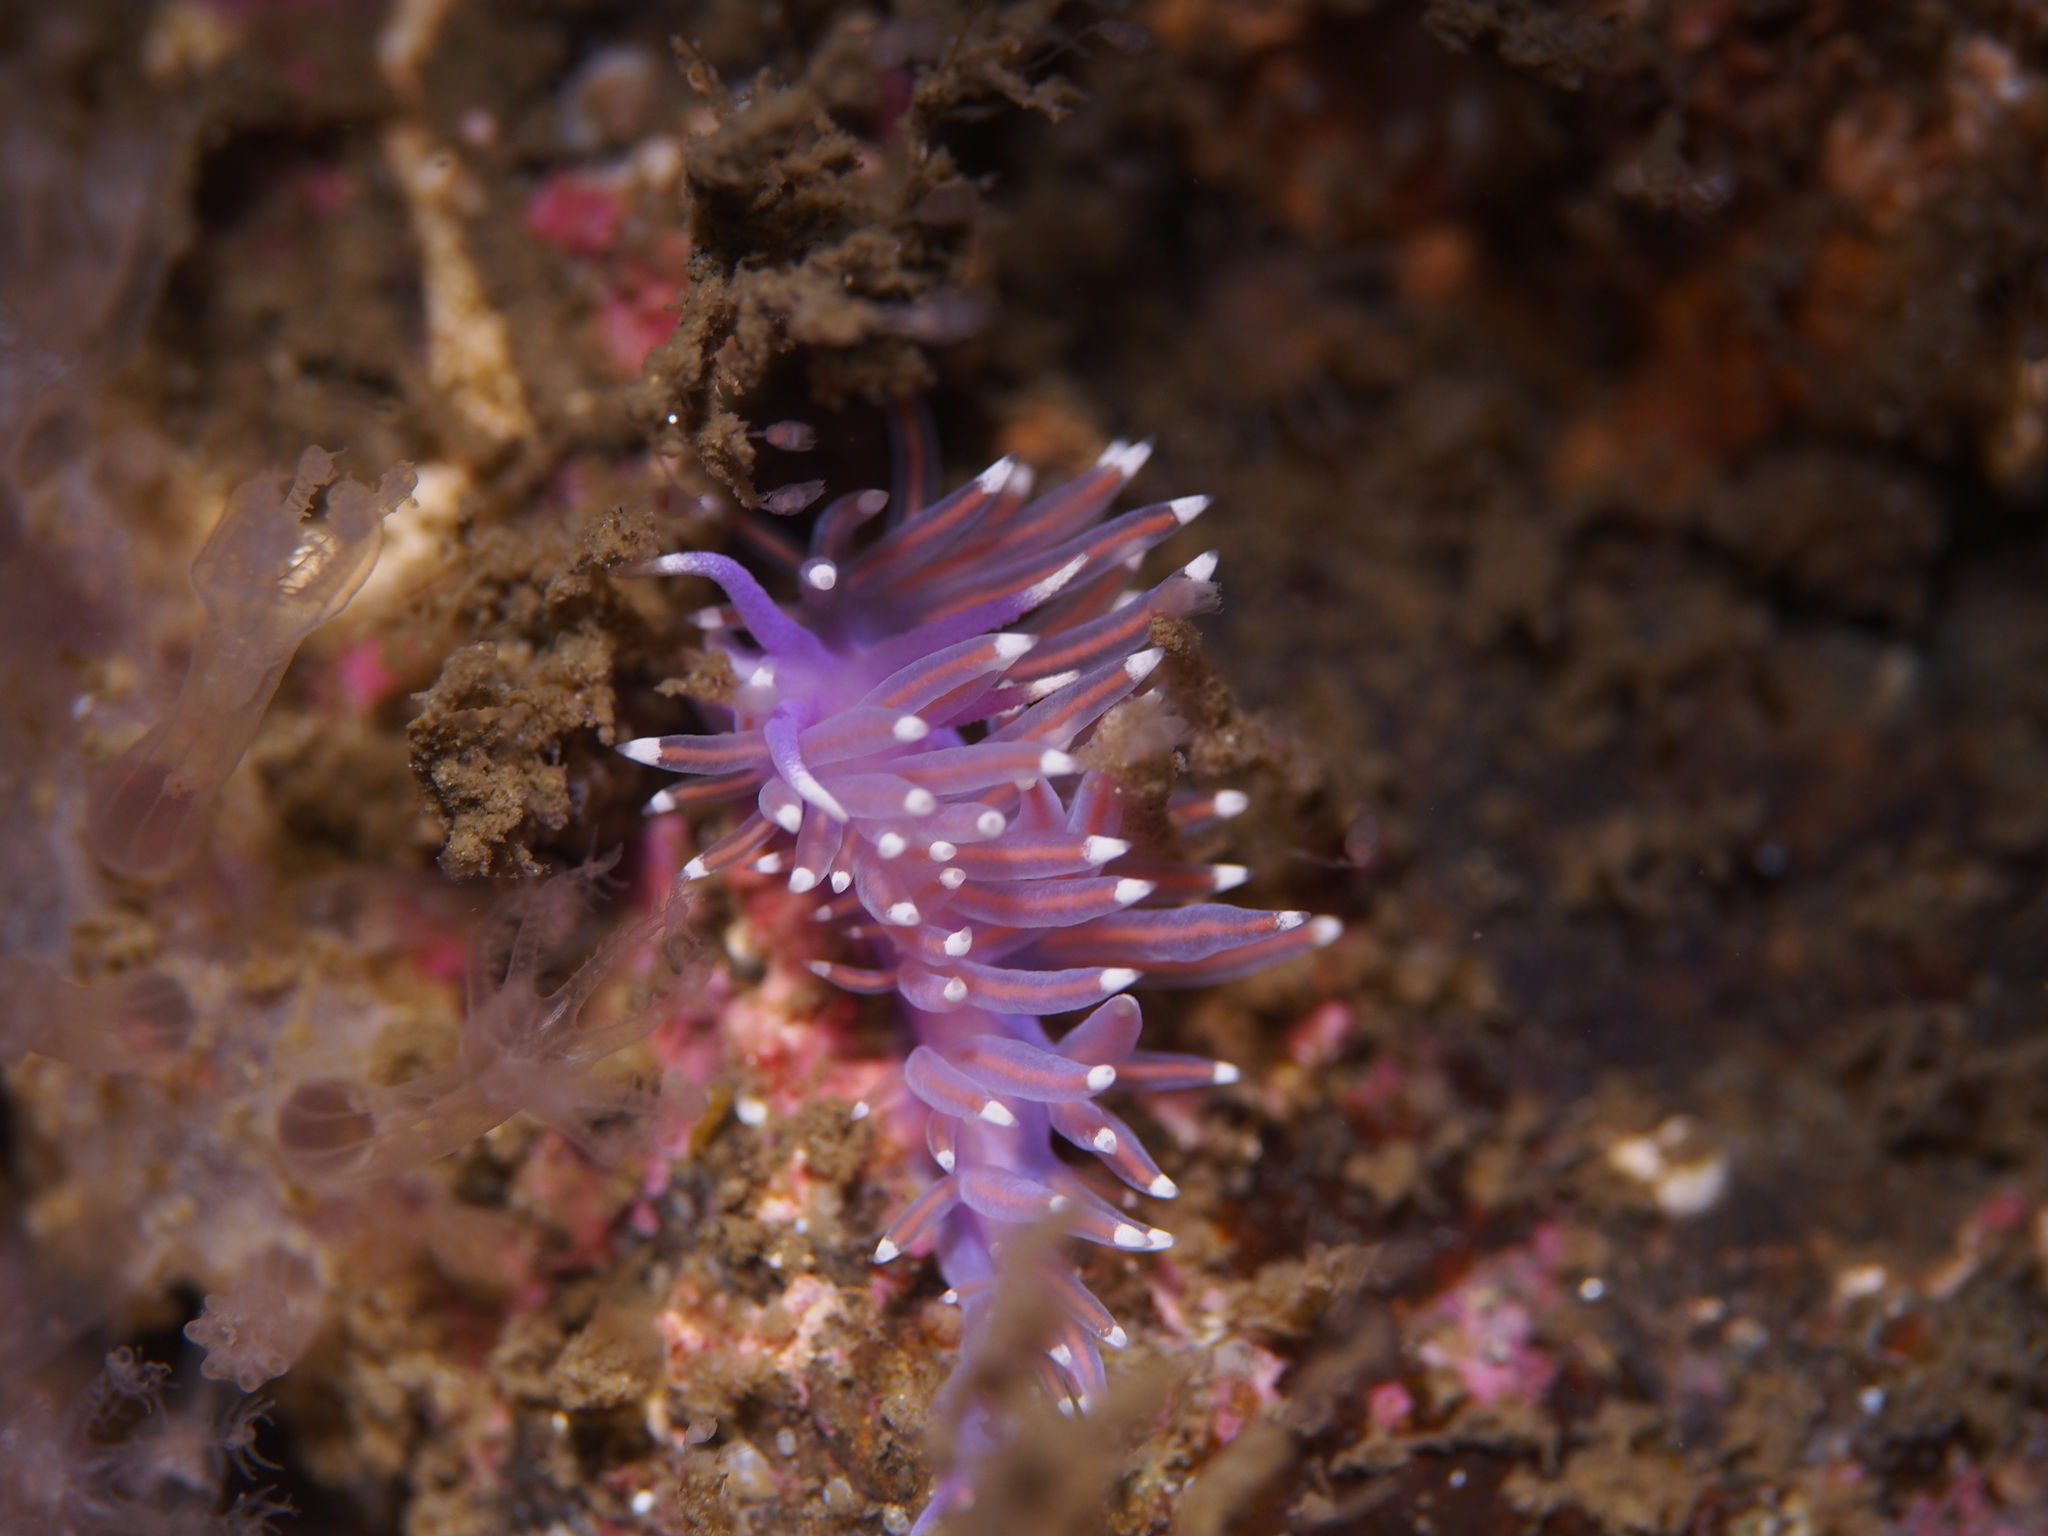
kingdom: Animalia
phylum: Mollusca
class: Gastropoda
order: Nudibranchia
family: Flabellinidae
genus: Edmundsella
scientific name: Edmundsella pedata
